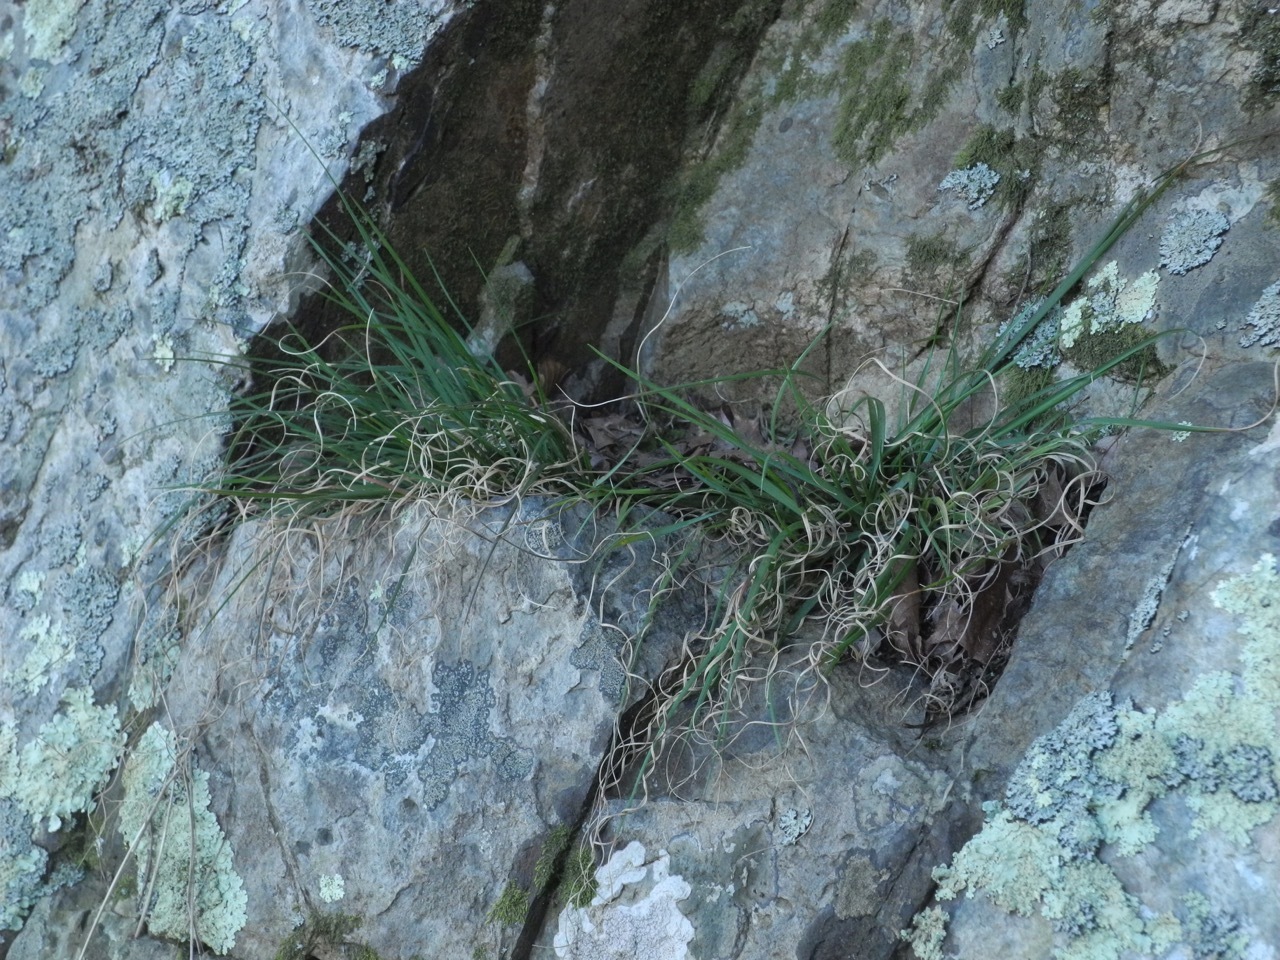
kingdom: Plantae
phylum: Tracheophyta
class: Liliopsida
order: Poales
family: Poaceae
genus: Danthonia
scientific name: Danthonia spicata
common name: Common wild oatgrass
